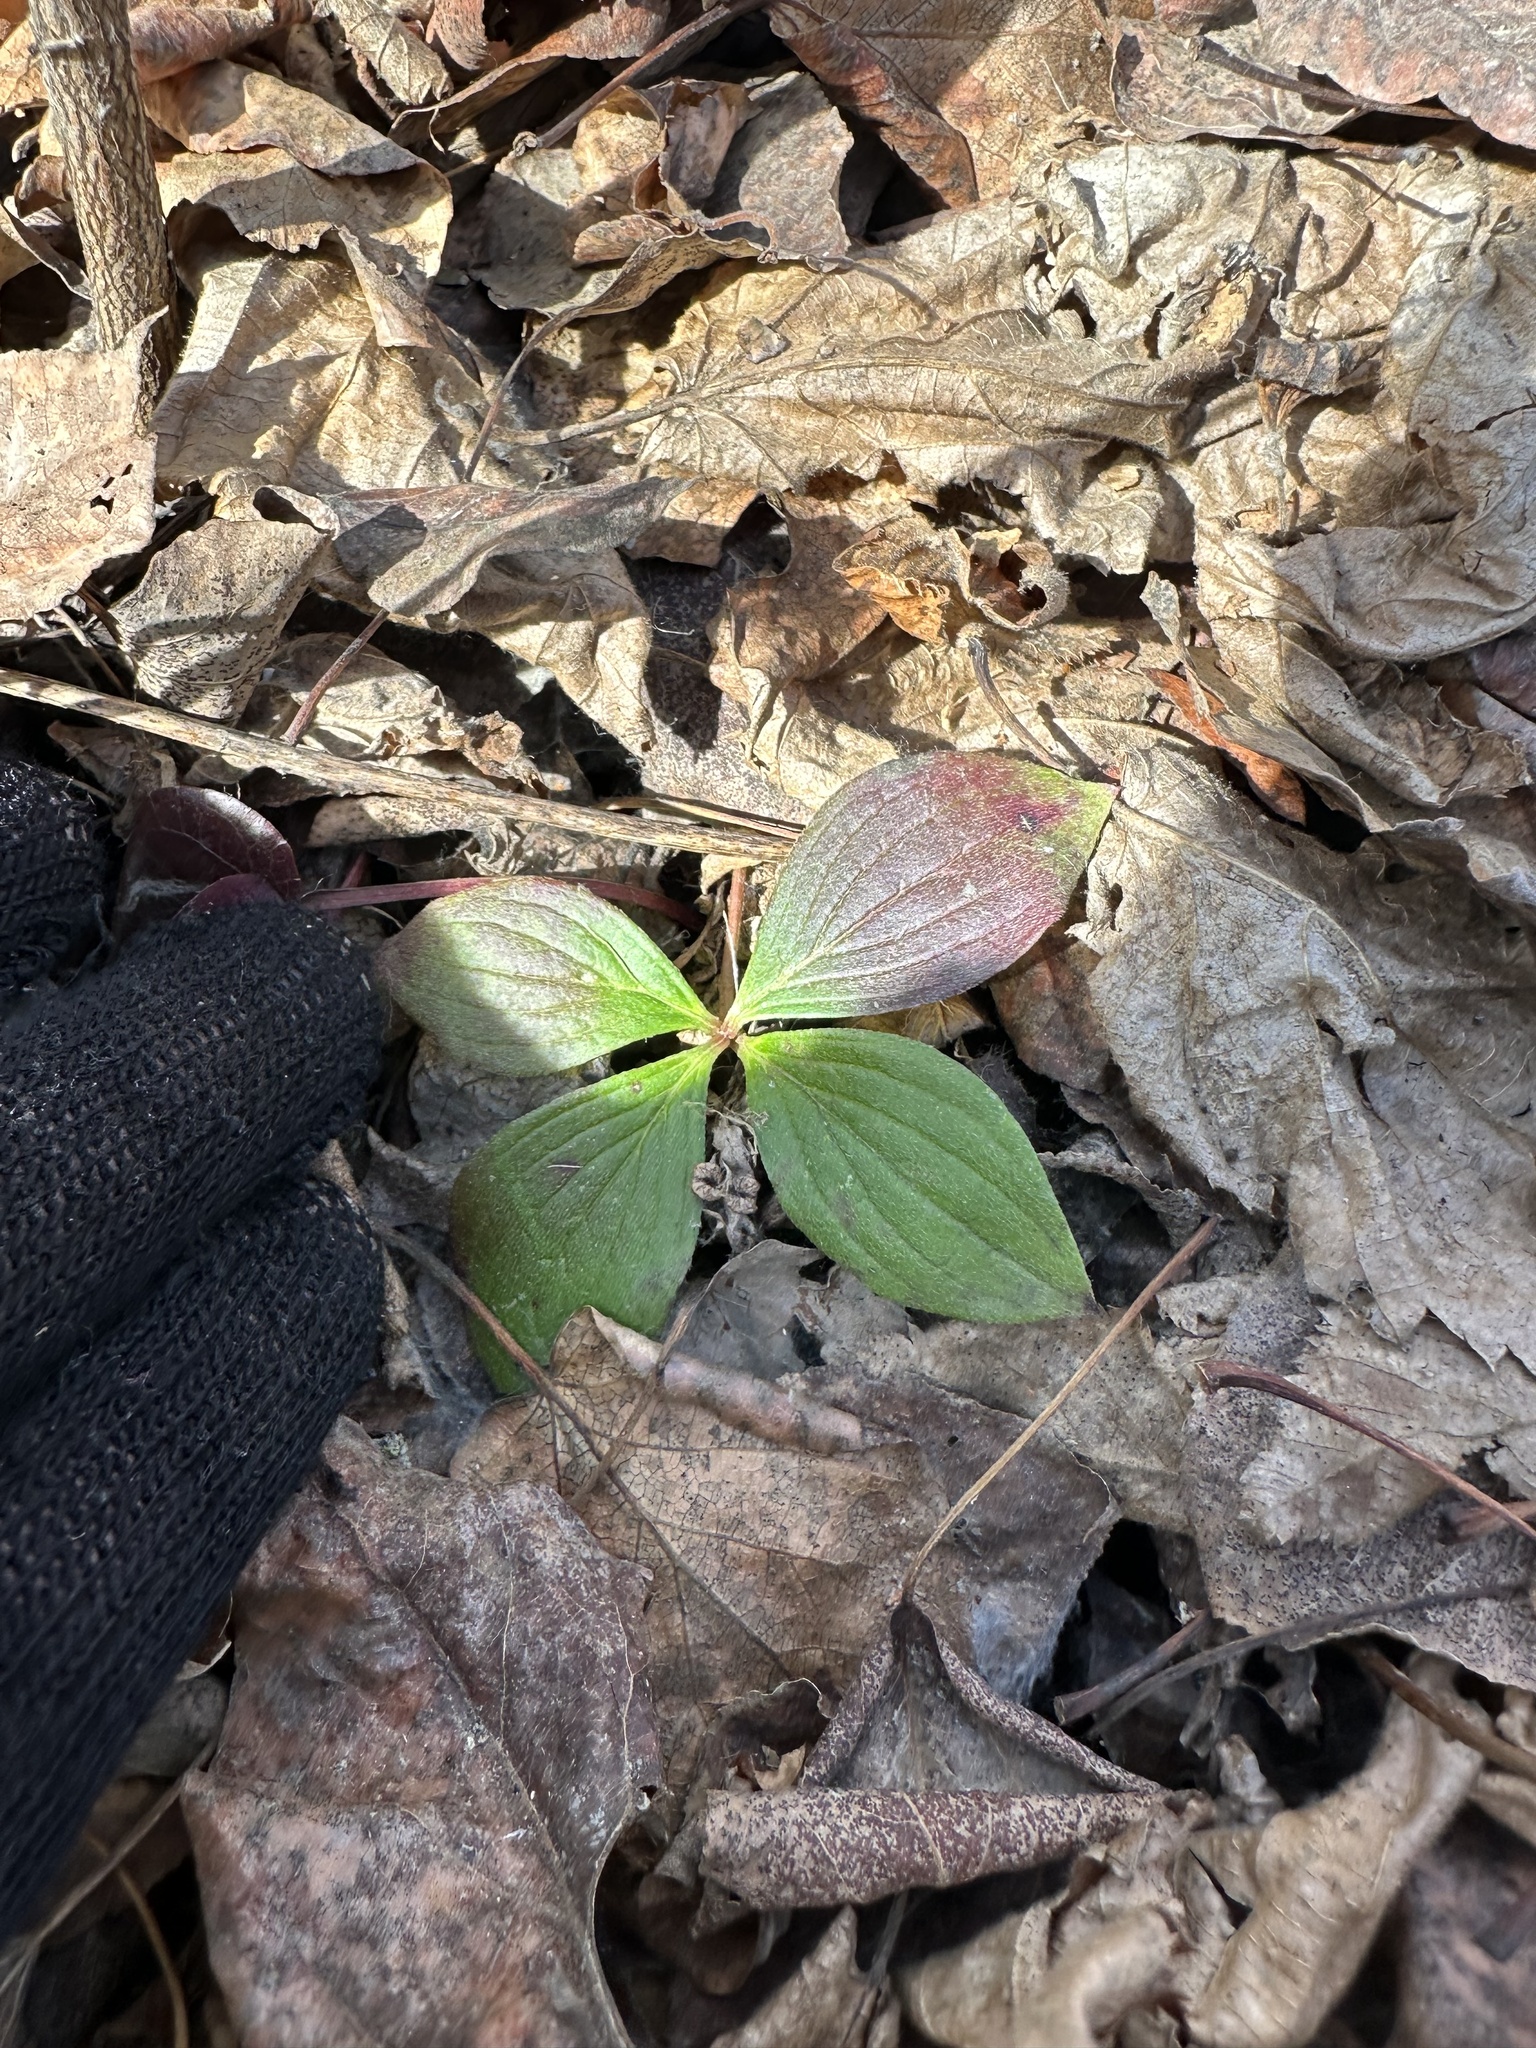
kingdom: Plantae
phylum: Tracheophyta
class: Magnoliopsida
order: Cornales
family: Cornaceae
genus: Cornus
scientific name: Cornus canadensis
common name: Creeping dogwood
